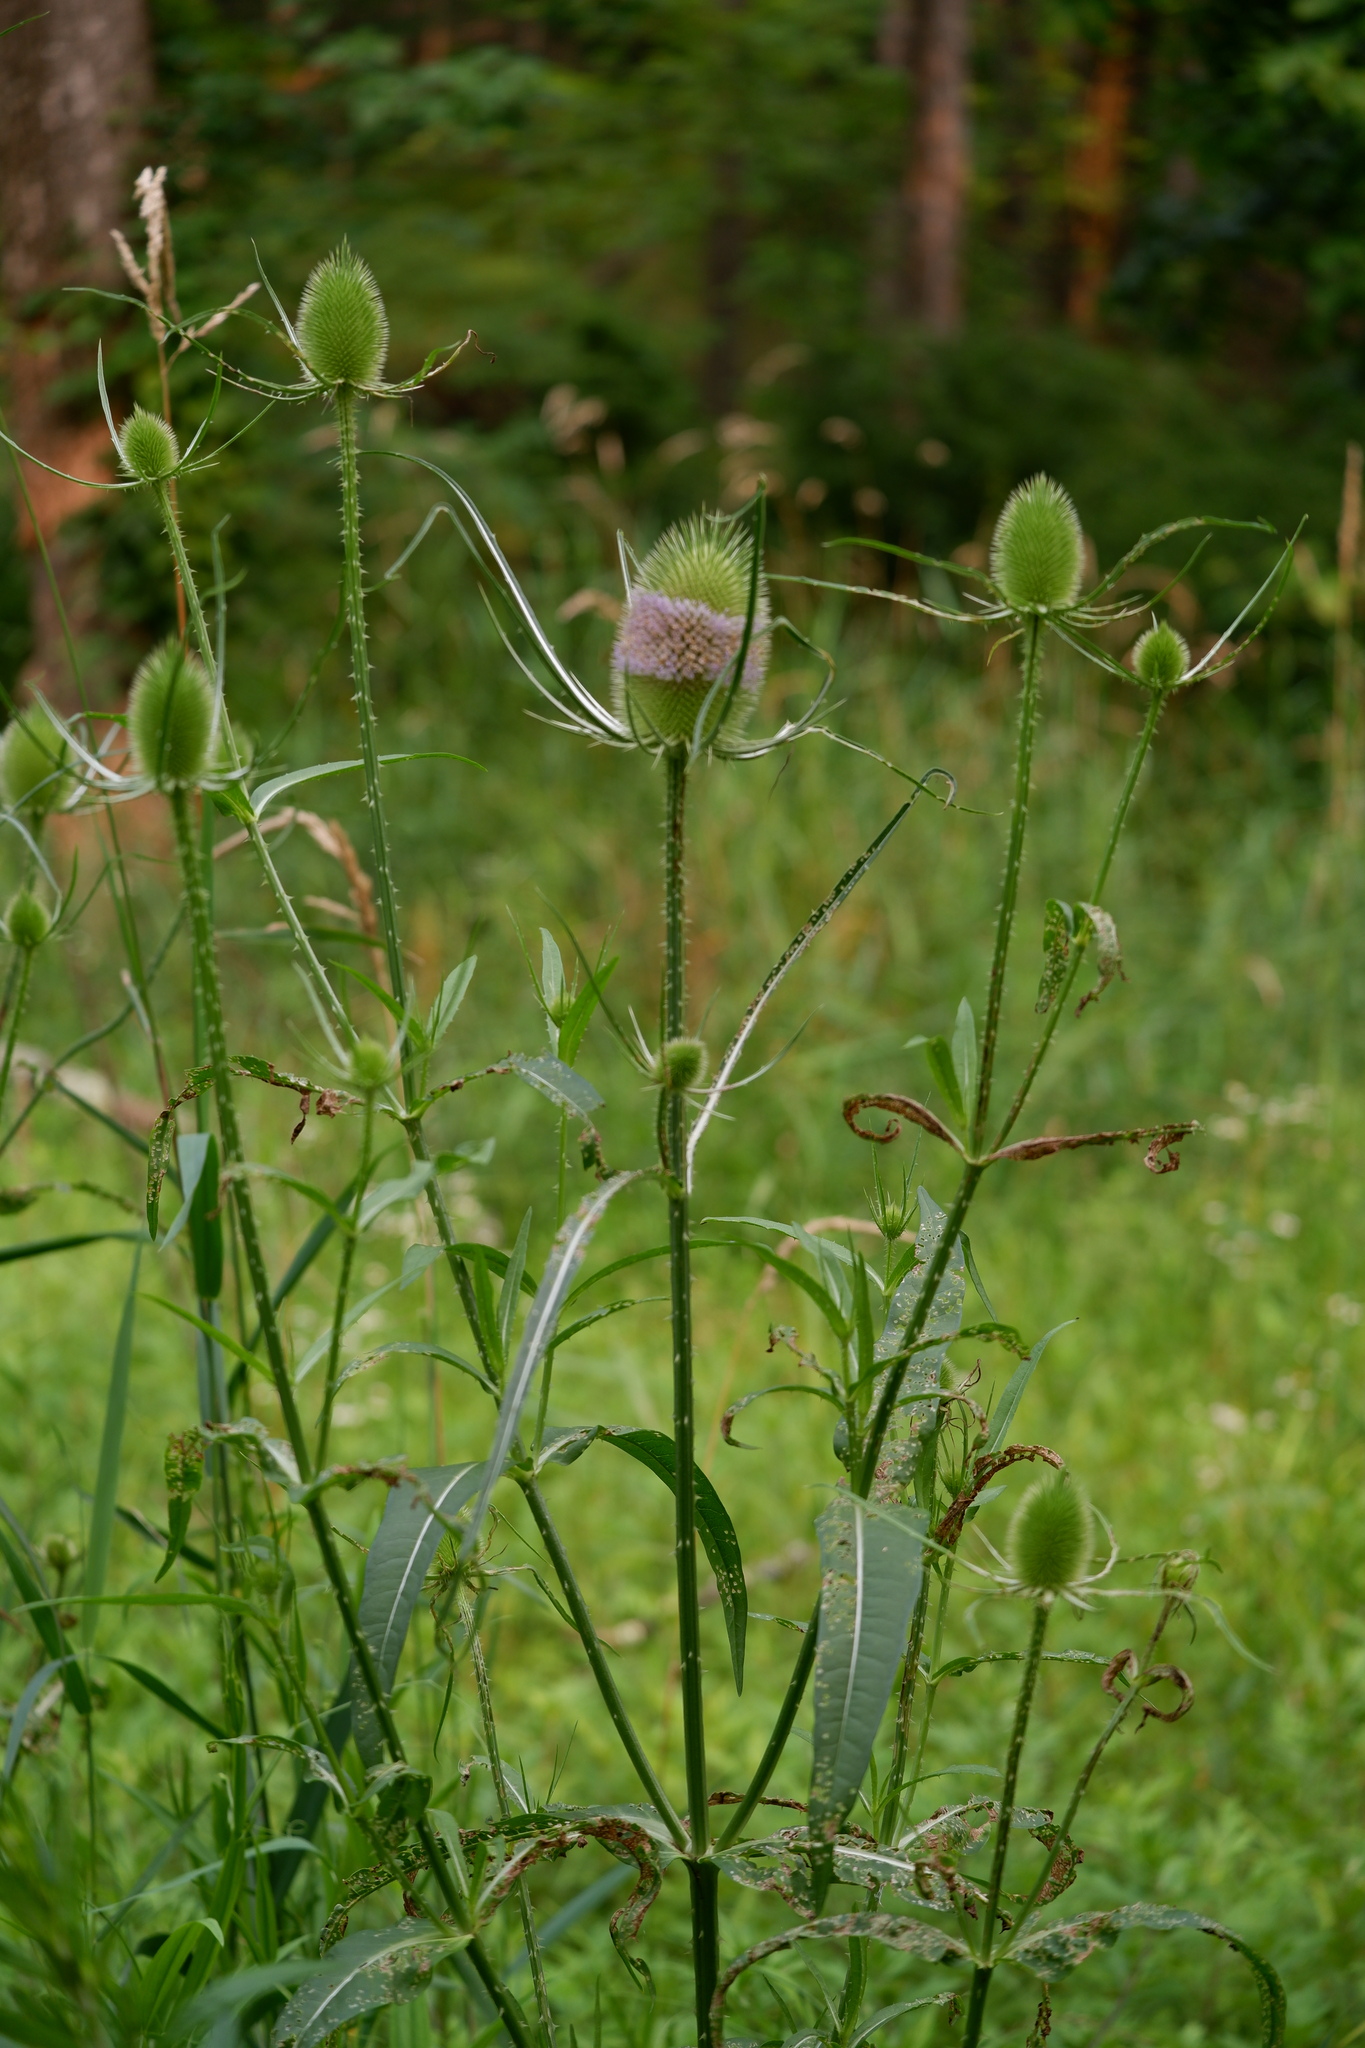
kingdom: Plantae
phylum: Tracheophyta
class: Magnoliopsida
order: Dipsacales
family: Caprifoliaceae
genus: Dipsacus
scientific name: Dipsacus fullonum
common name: Teasel
